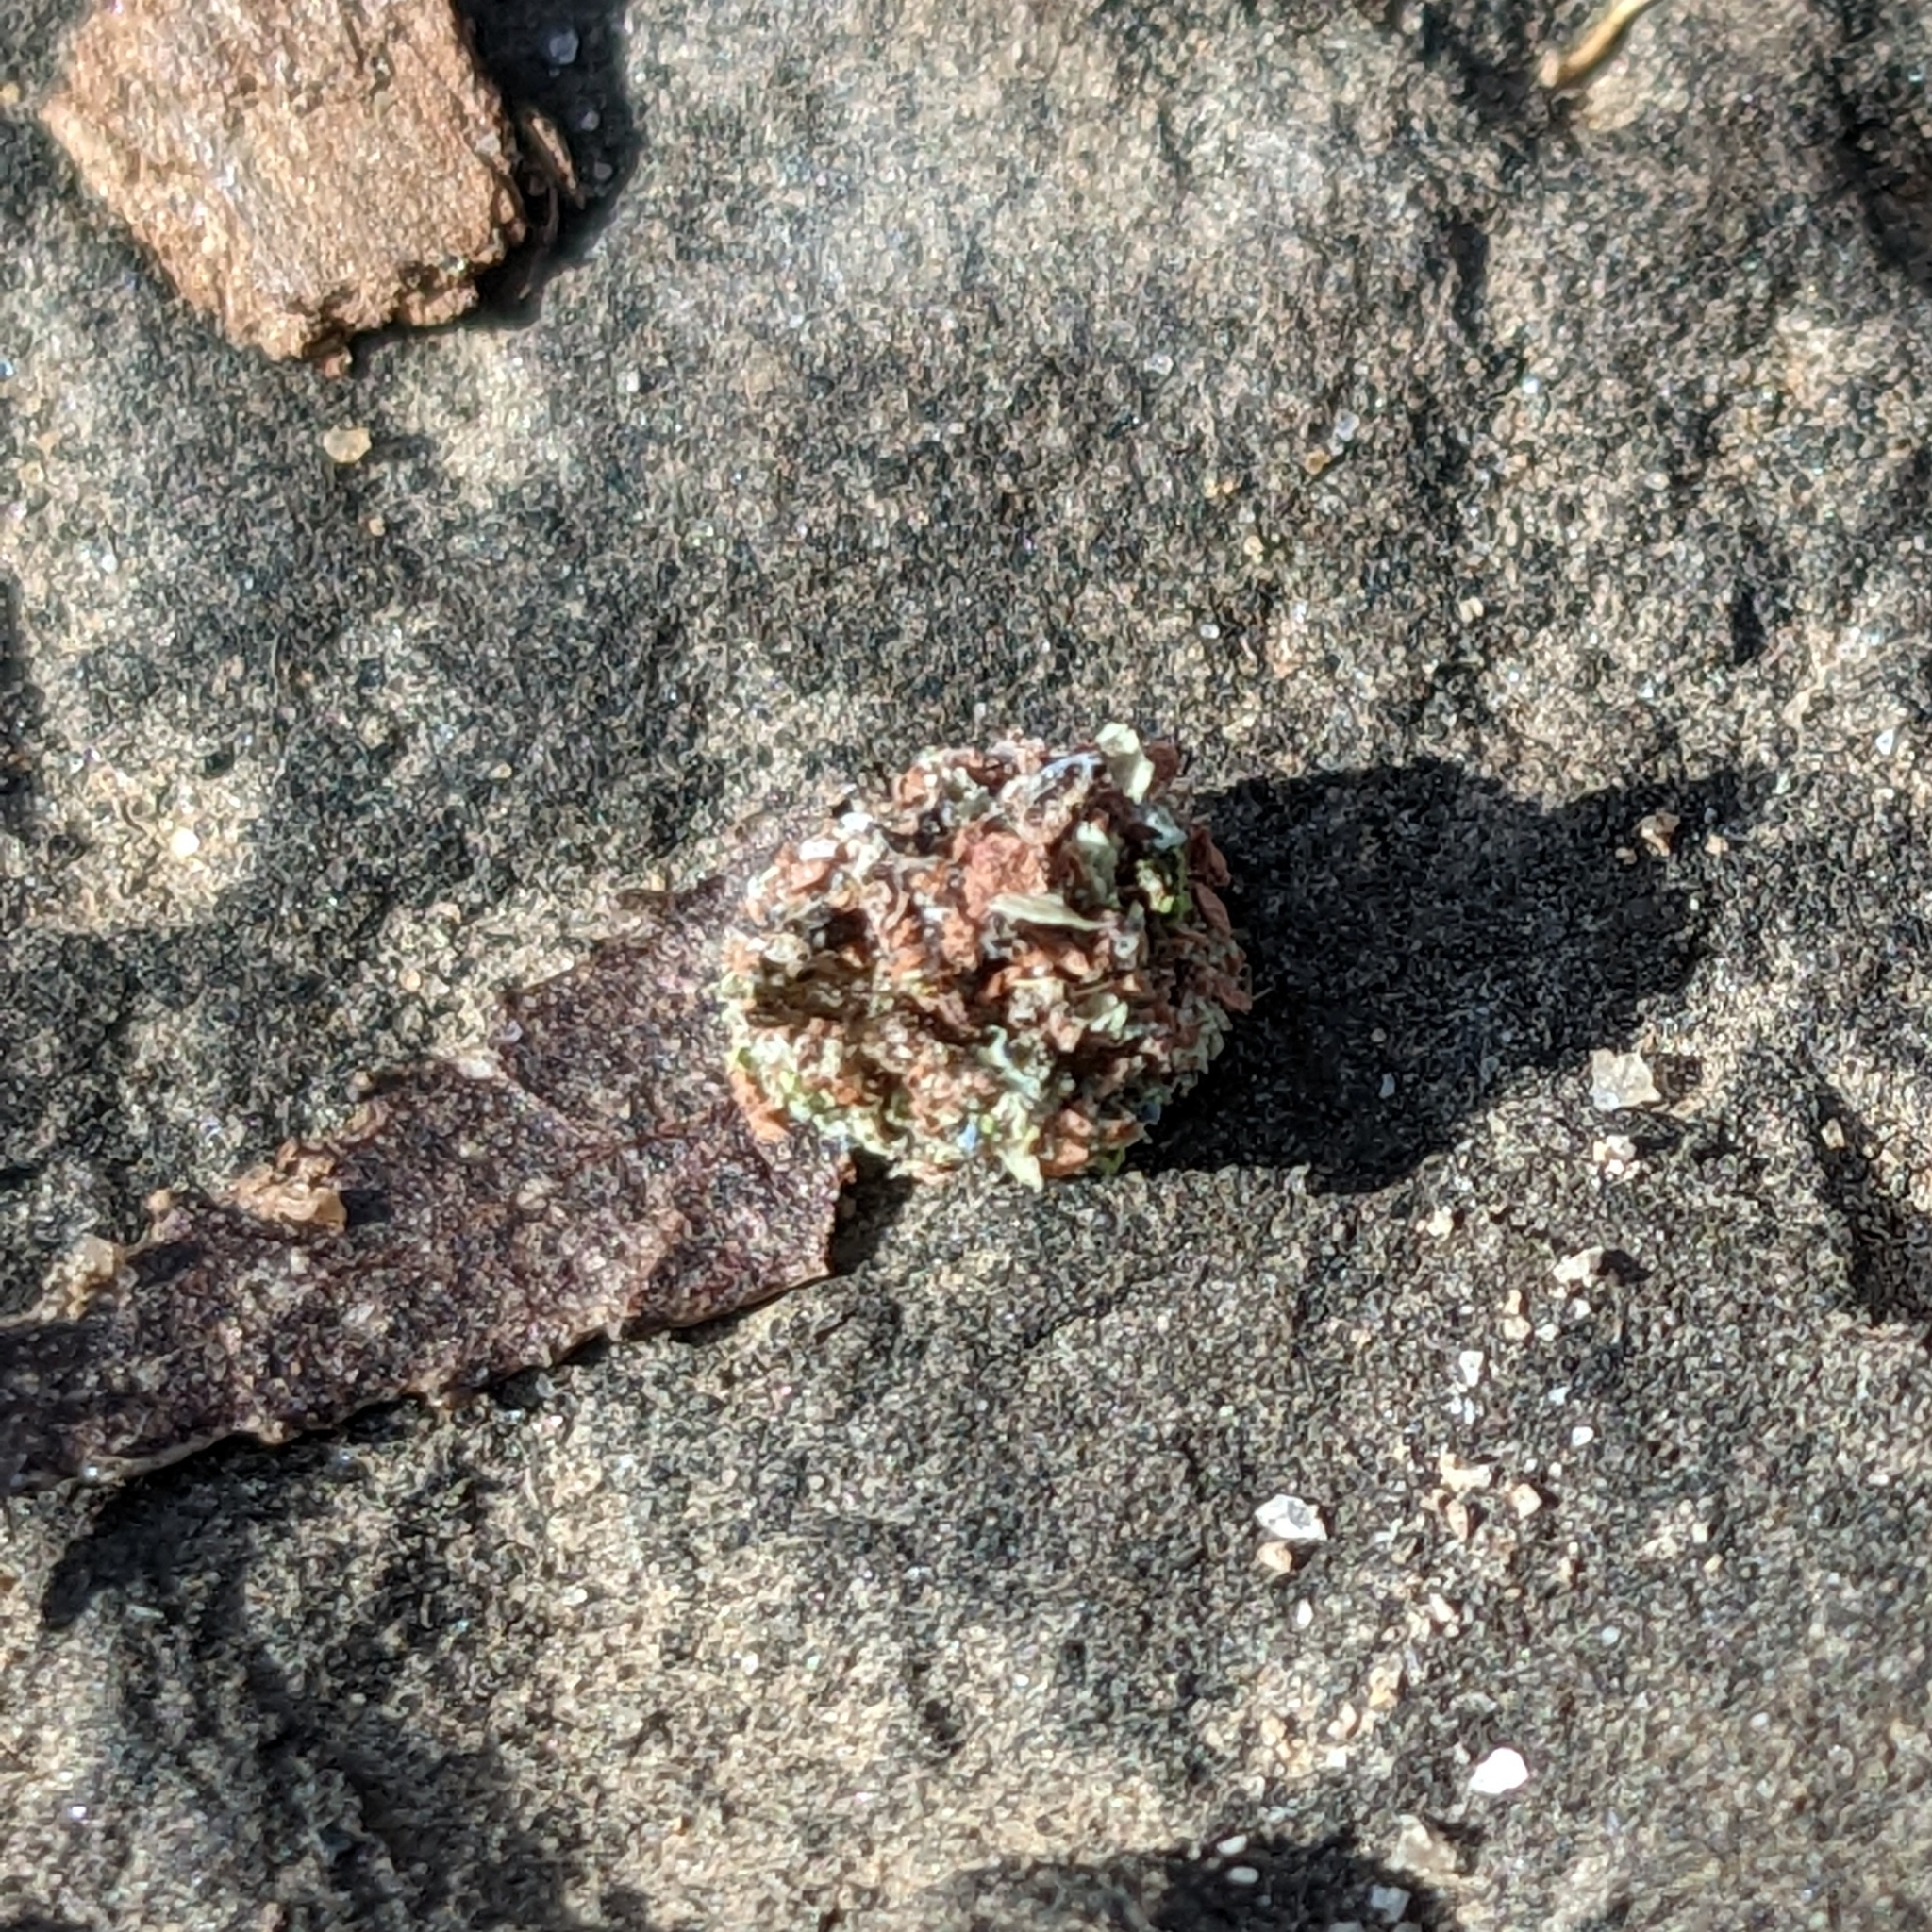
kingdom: Animalia
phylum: Arthropoda
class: Insecta
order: Neuroptera
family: Chrysopidae
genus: Leucochrysa
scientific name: Leucochrysa pavida
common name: Lichen-carrying green lacewing
